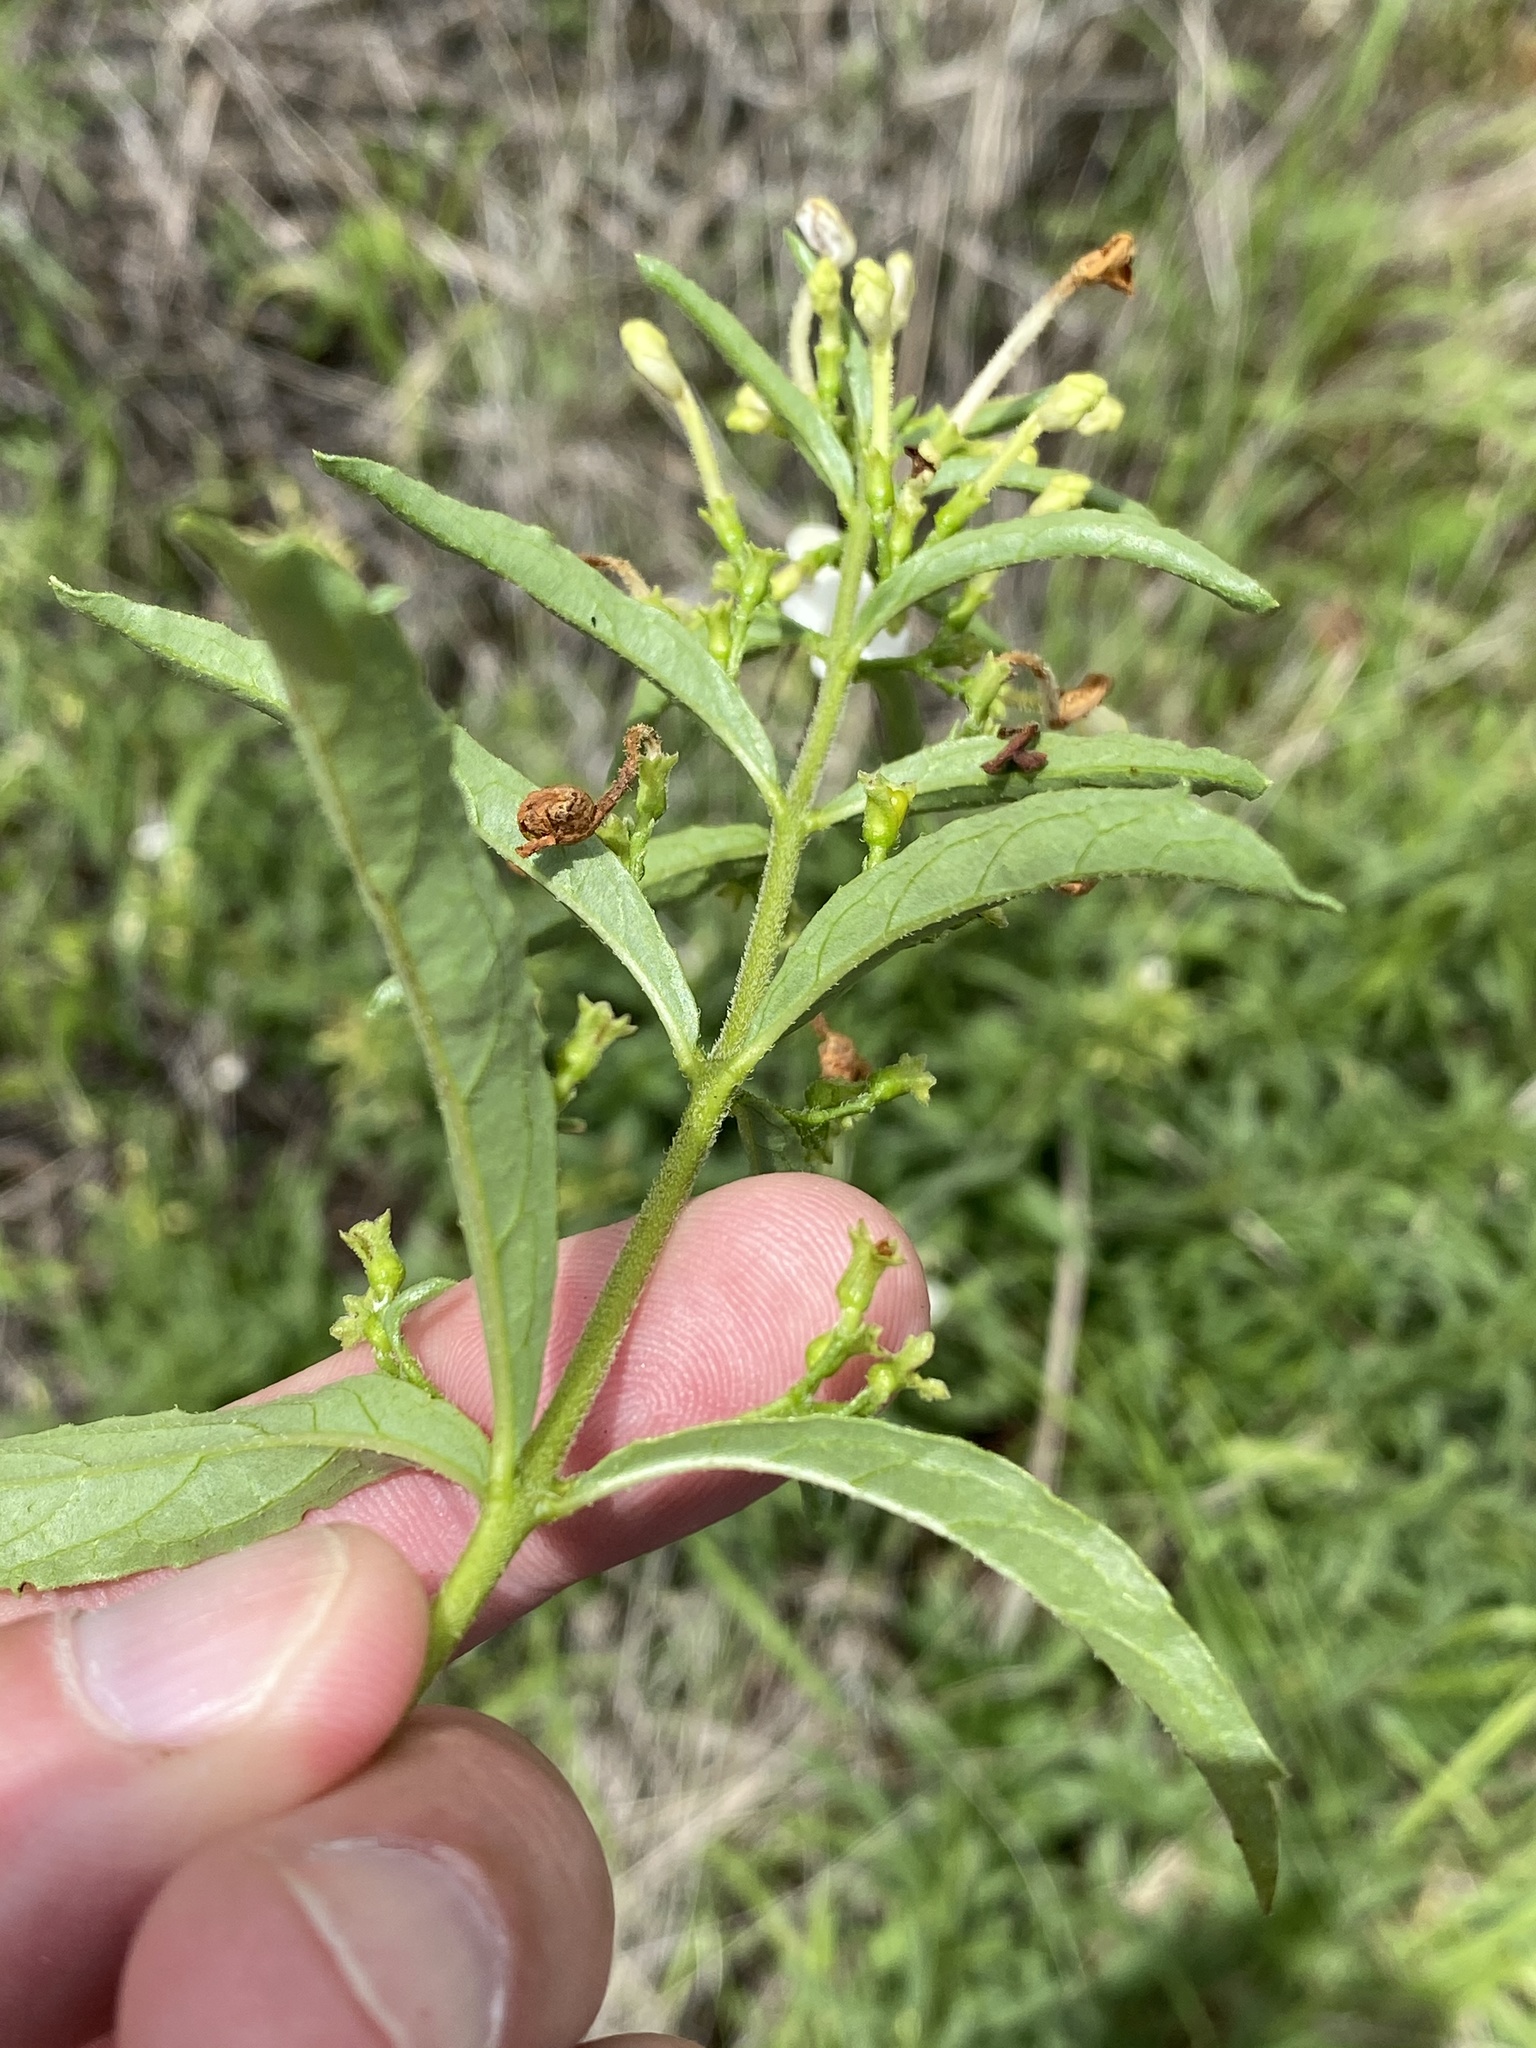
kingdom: Plantae
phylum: Tracheophyta
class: Magnoliopsida
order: Lamiales
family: Lamiaceae
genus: Clerodendrum
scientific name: Clerodendrum ternatum
